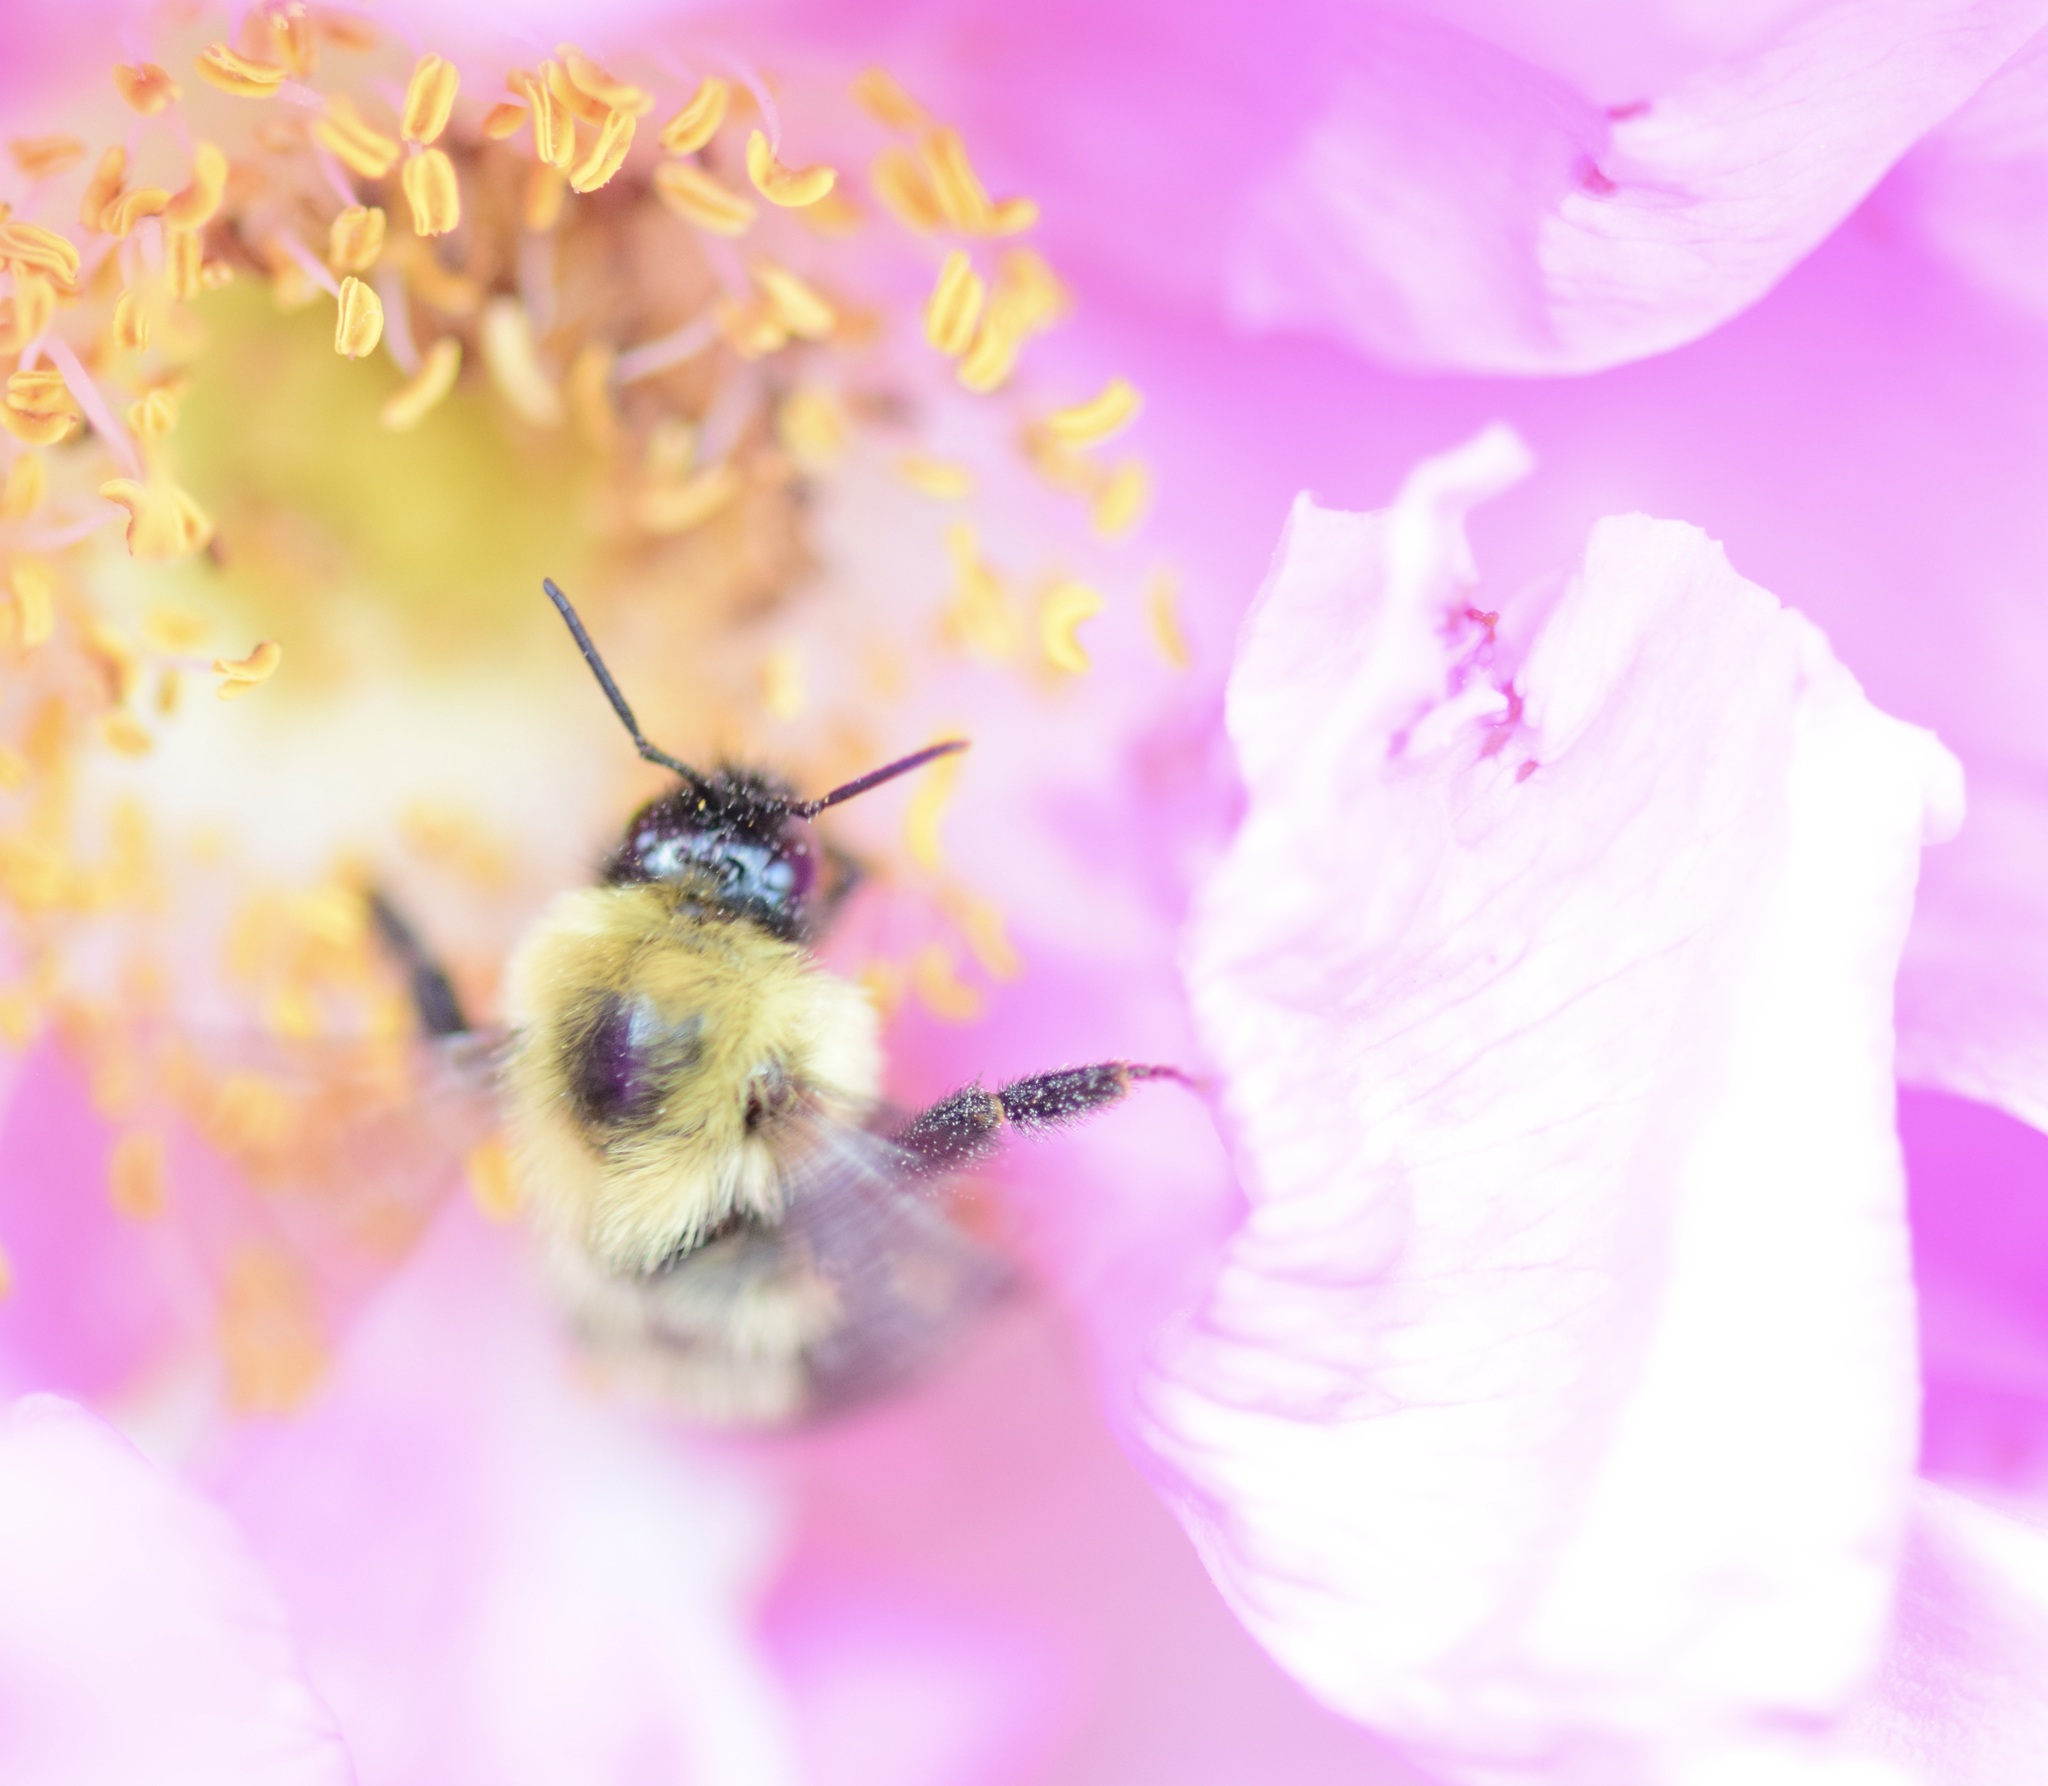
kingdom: Animalia
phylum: Arthropoda
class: Insecta
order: Hymenoptera
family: Apidae
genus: Bombus
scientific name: Bombus bimaculatus
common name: Two-spotted bumble bee
